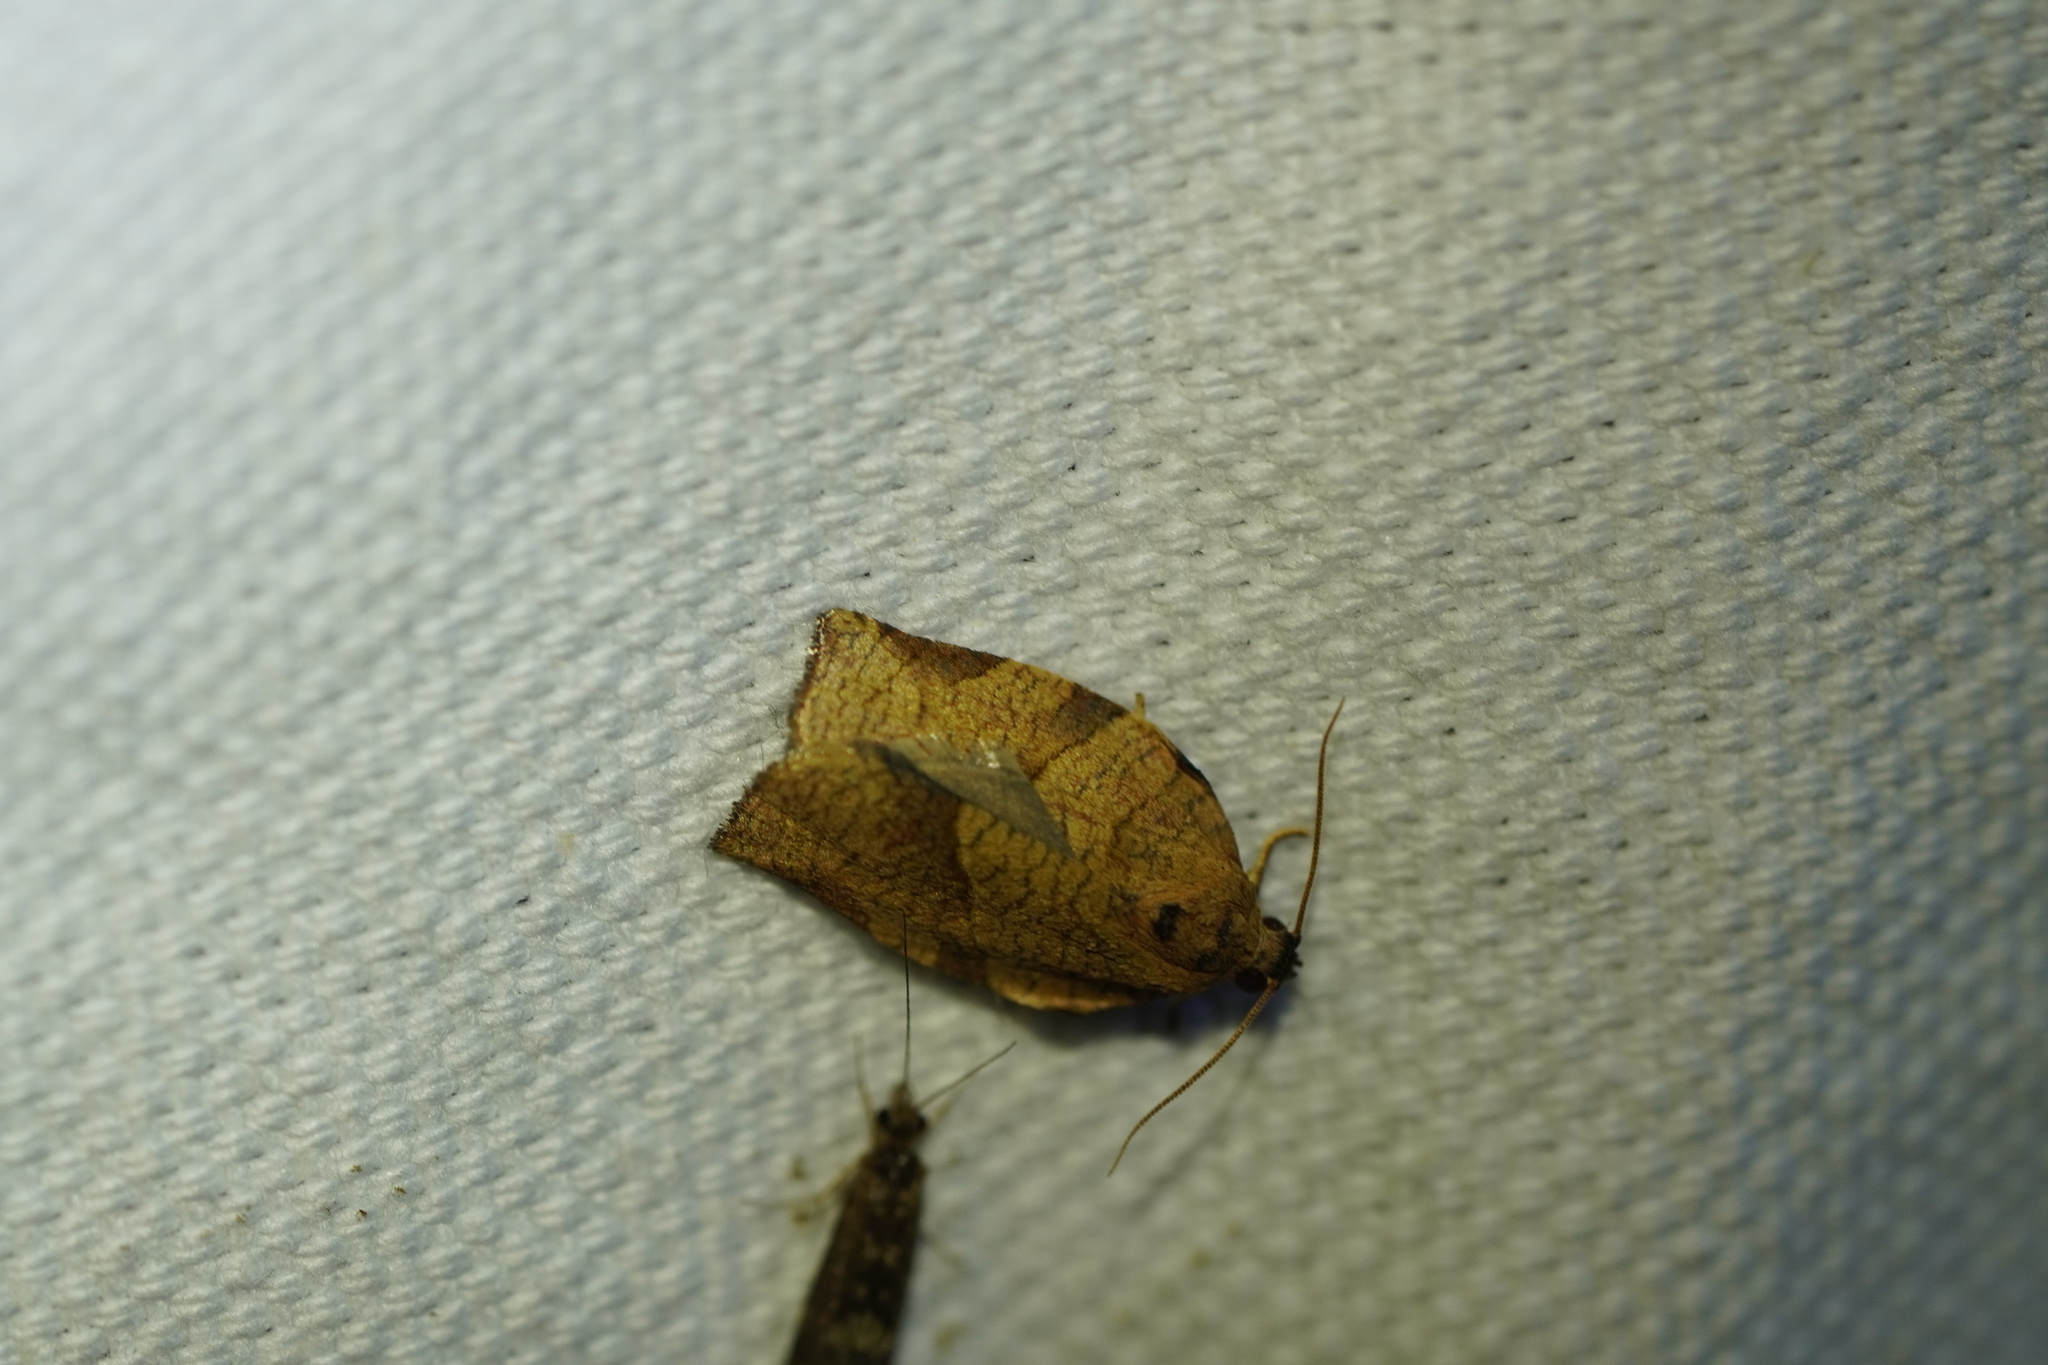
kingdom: Animalia
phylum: Arthropoda
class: Insecta
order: Lepidoptera
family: Tortricidae
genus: Choristoneura
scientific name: Choristoneura rosaceana
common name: Oblique-banded leafroller moth
